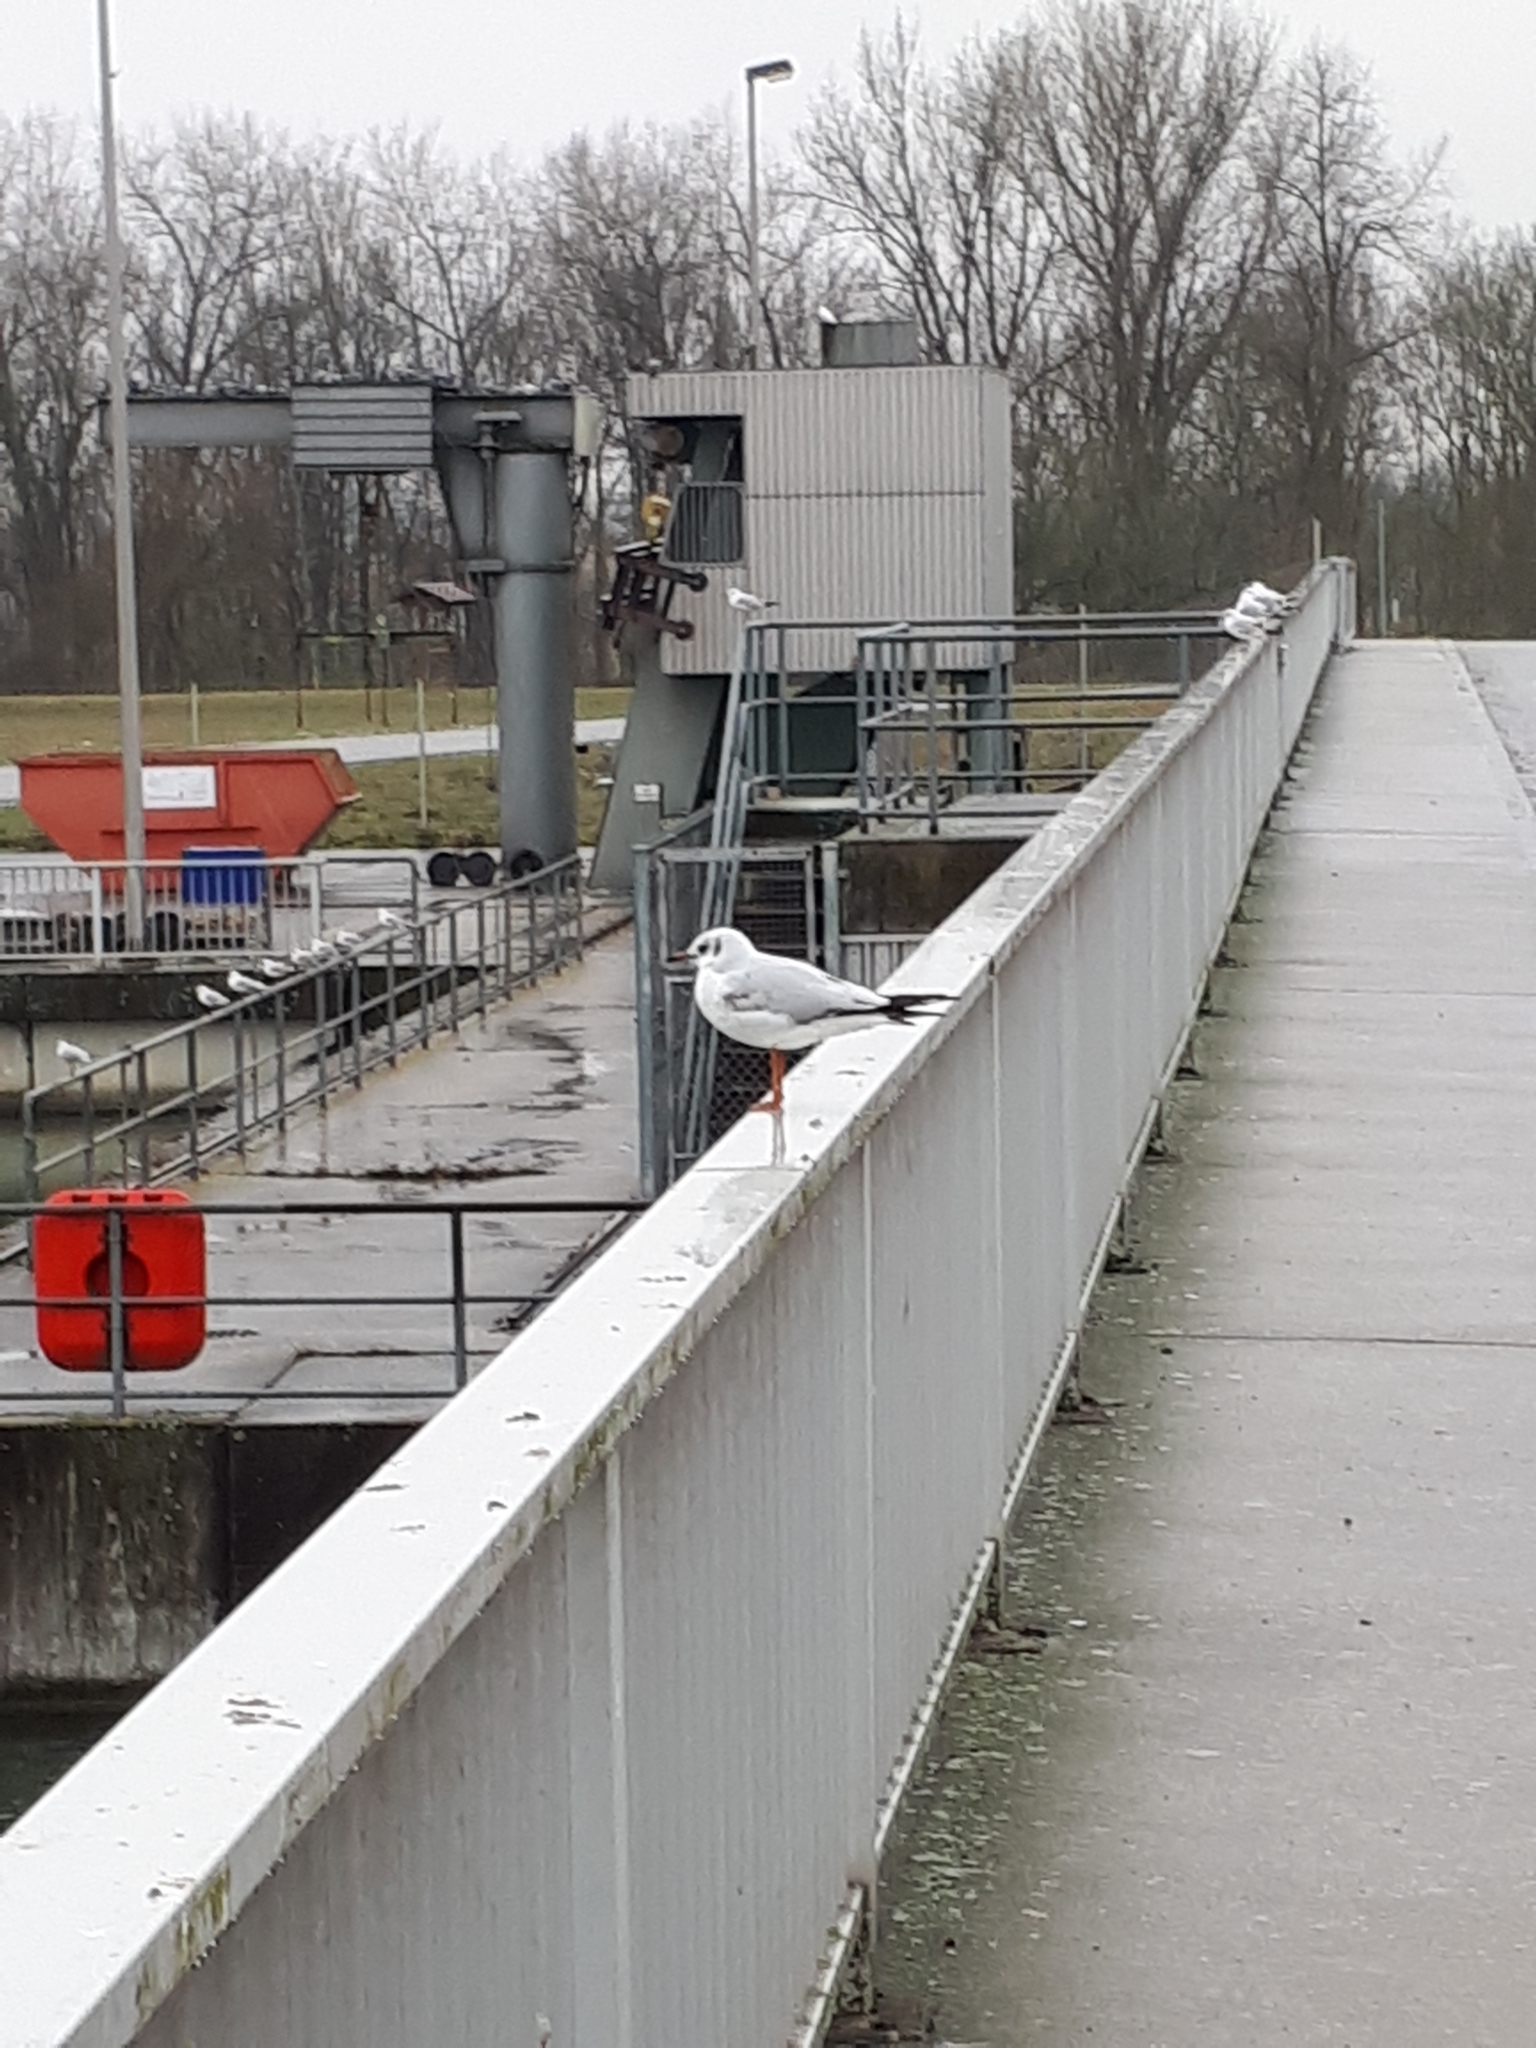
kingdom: Animalia
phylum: Chordata
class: Aves
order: Charadriiformes
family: Laridae
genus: Chroicocephalus
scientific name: Chroicocephalus ridibundus
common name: Black-headed gull
